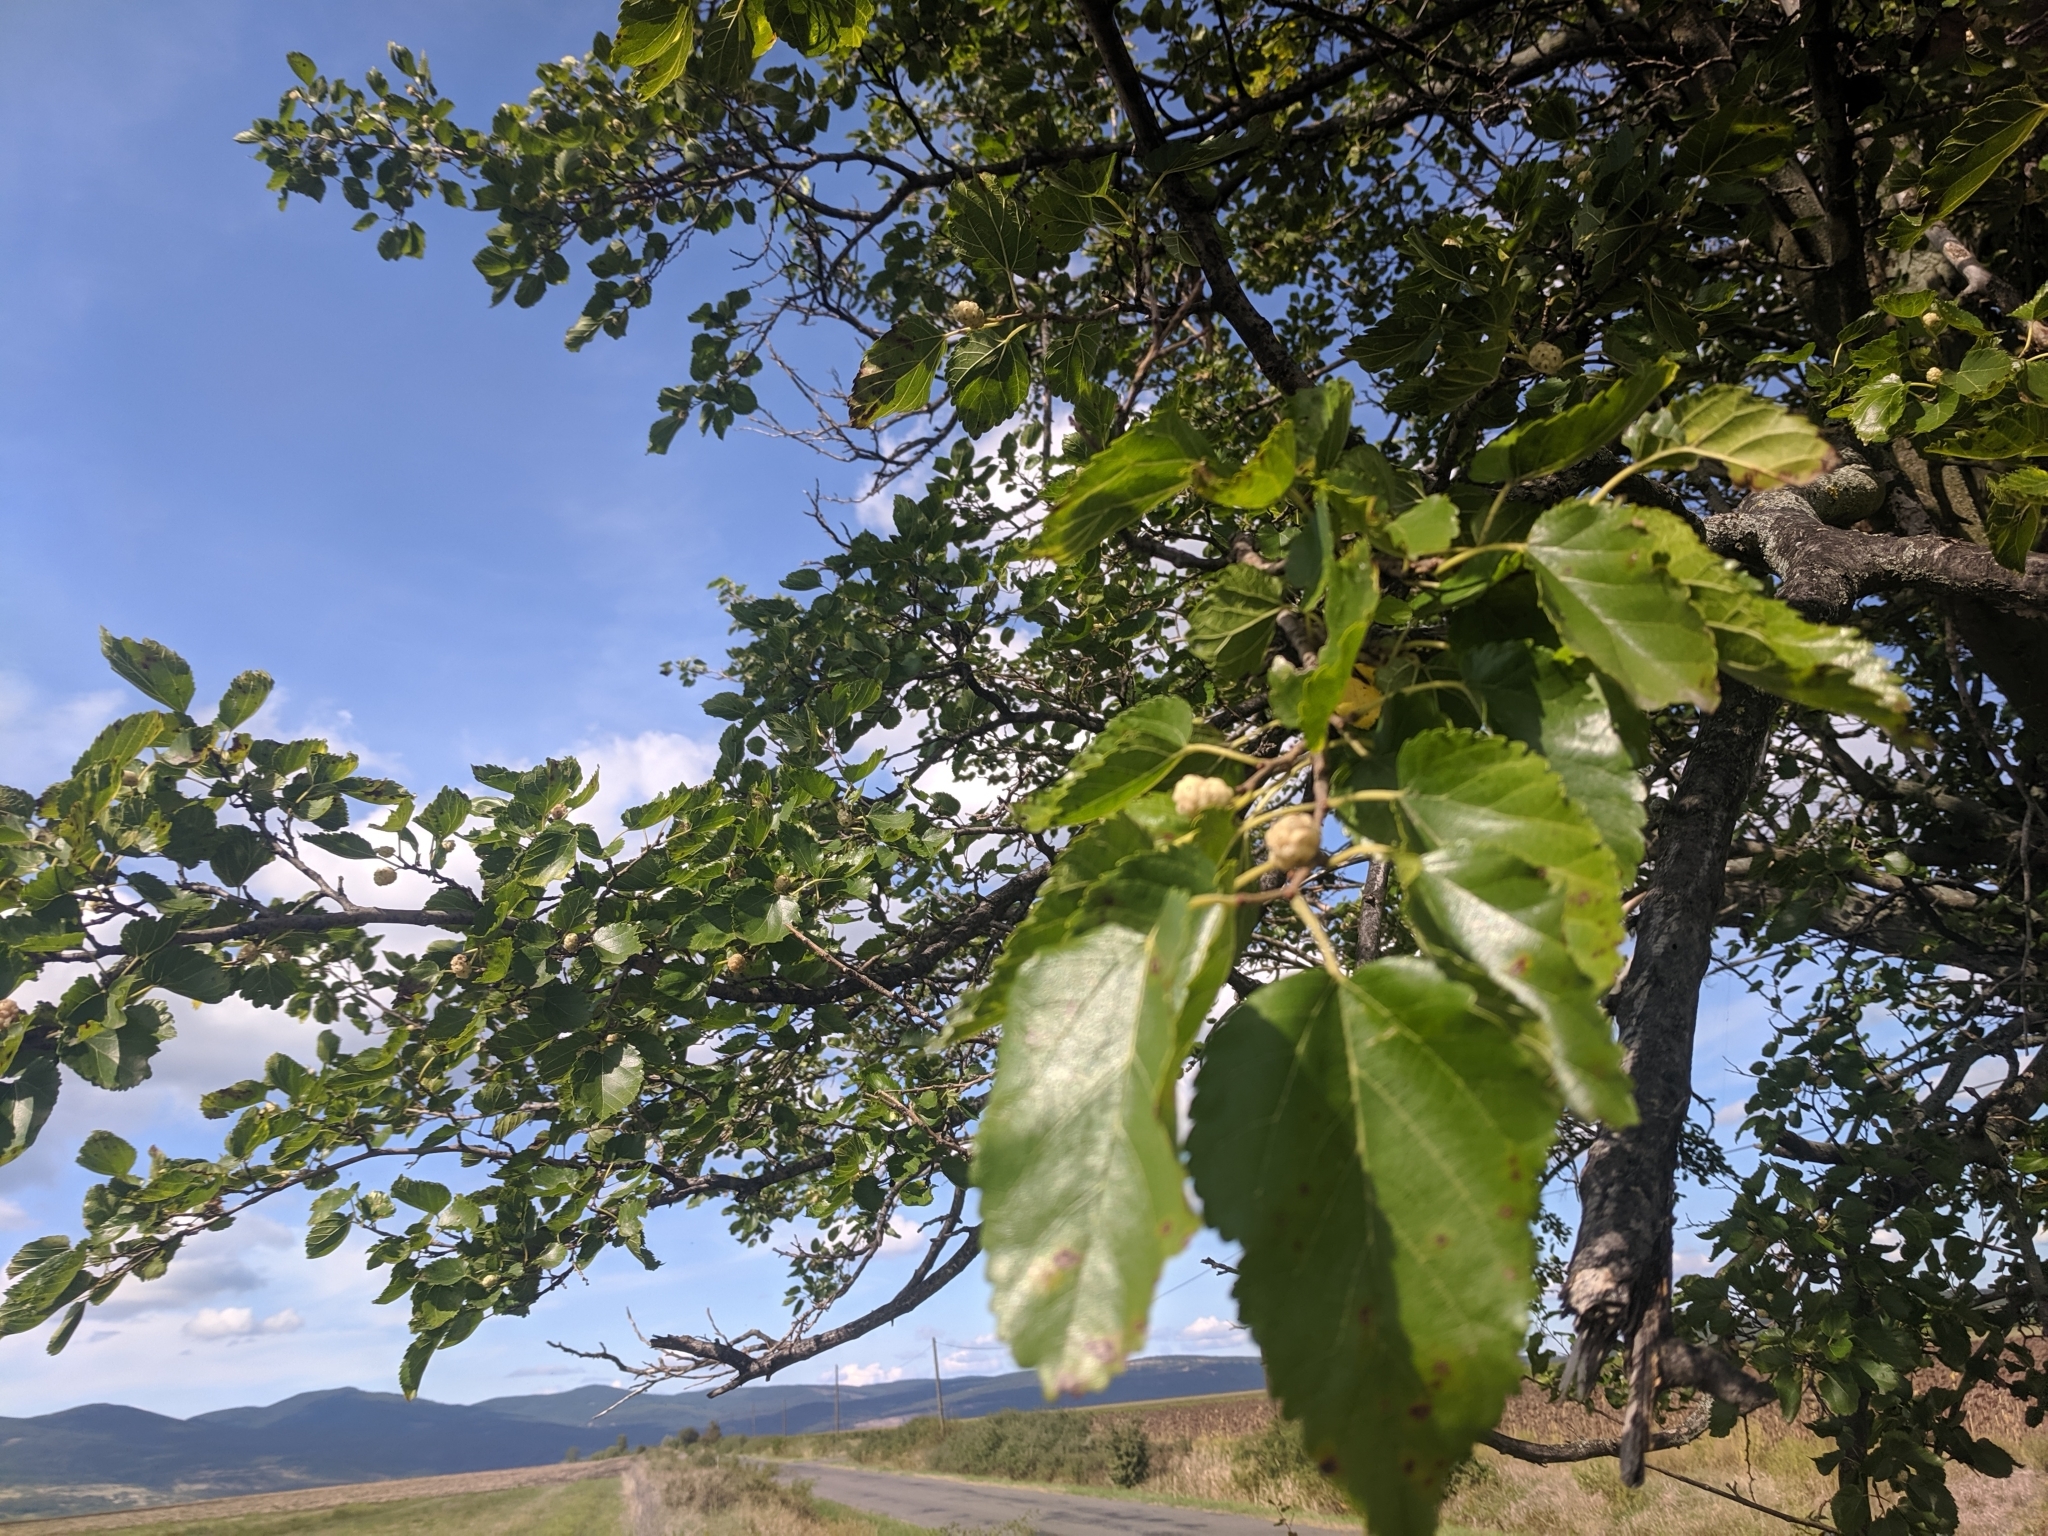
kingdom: Plantae
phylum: Tracheophyta
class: Magnoliopsida
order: Rosales
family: Moraceae
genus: Morus
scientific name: Morus alba
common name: White mulberry
